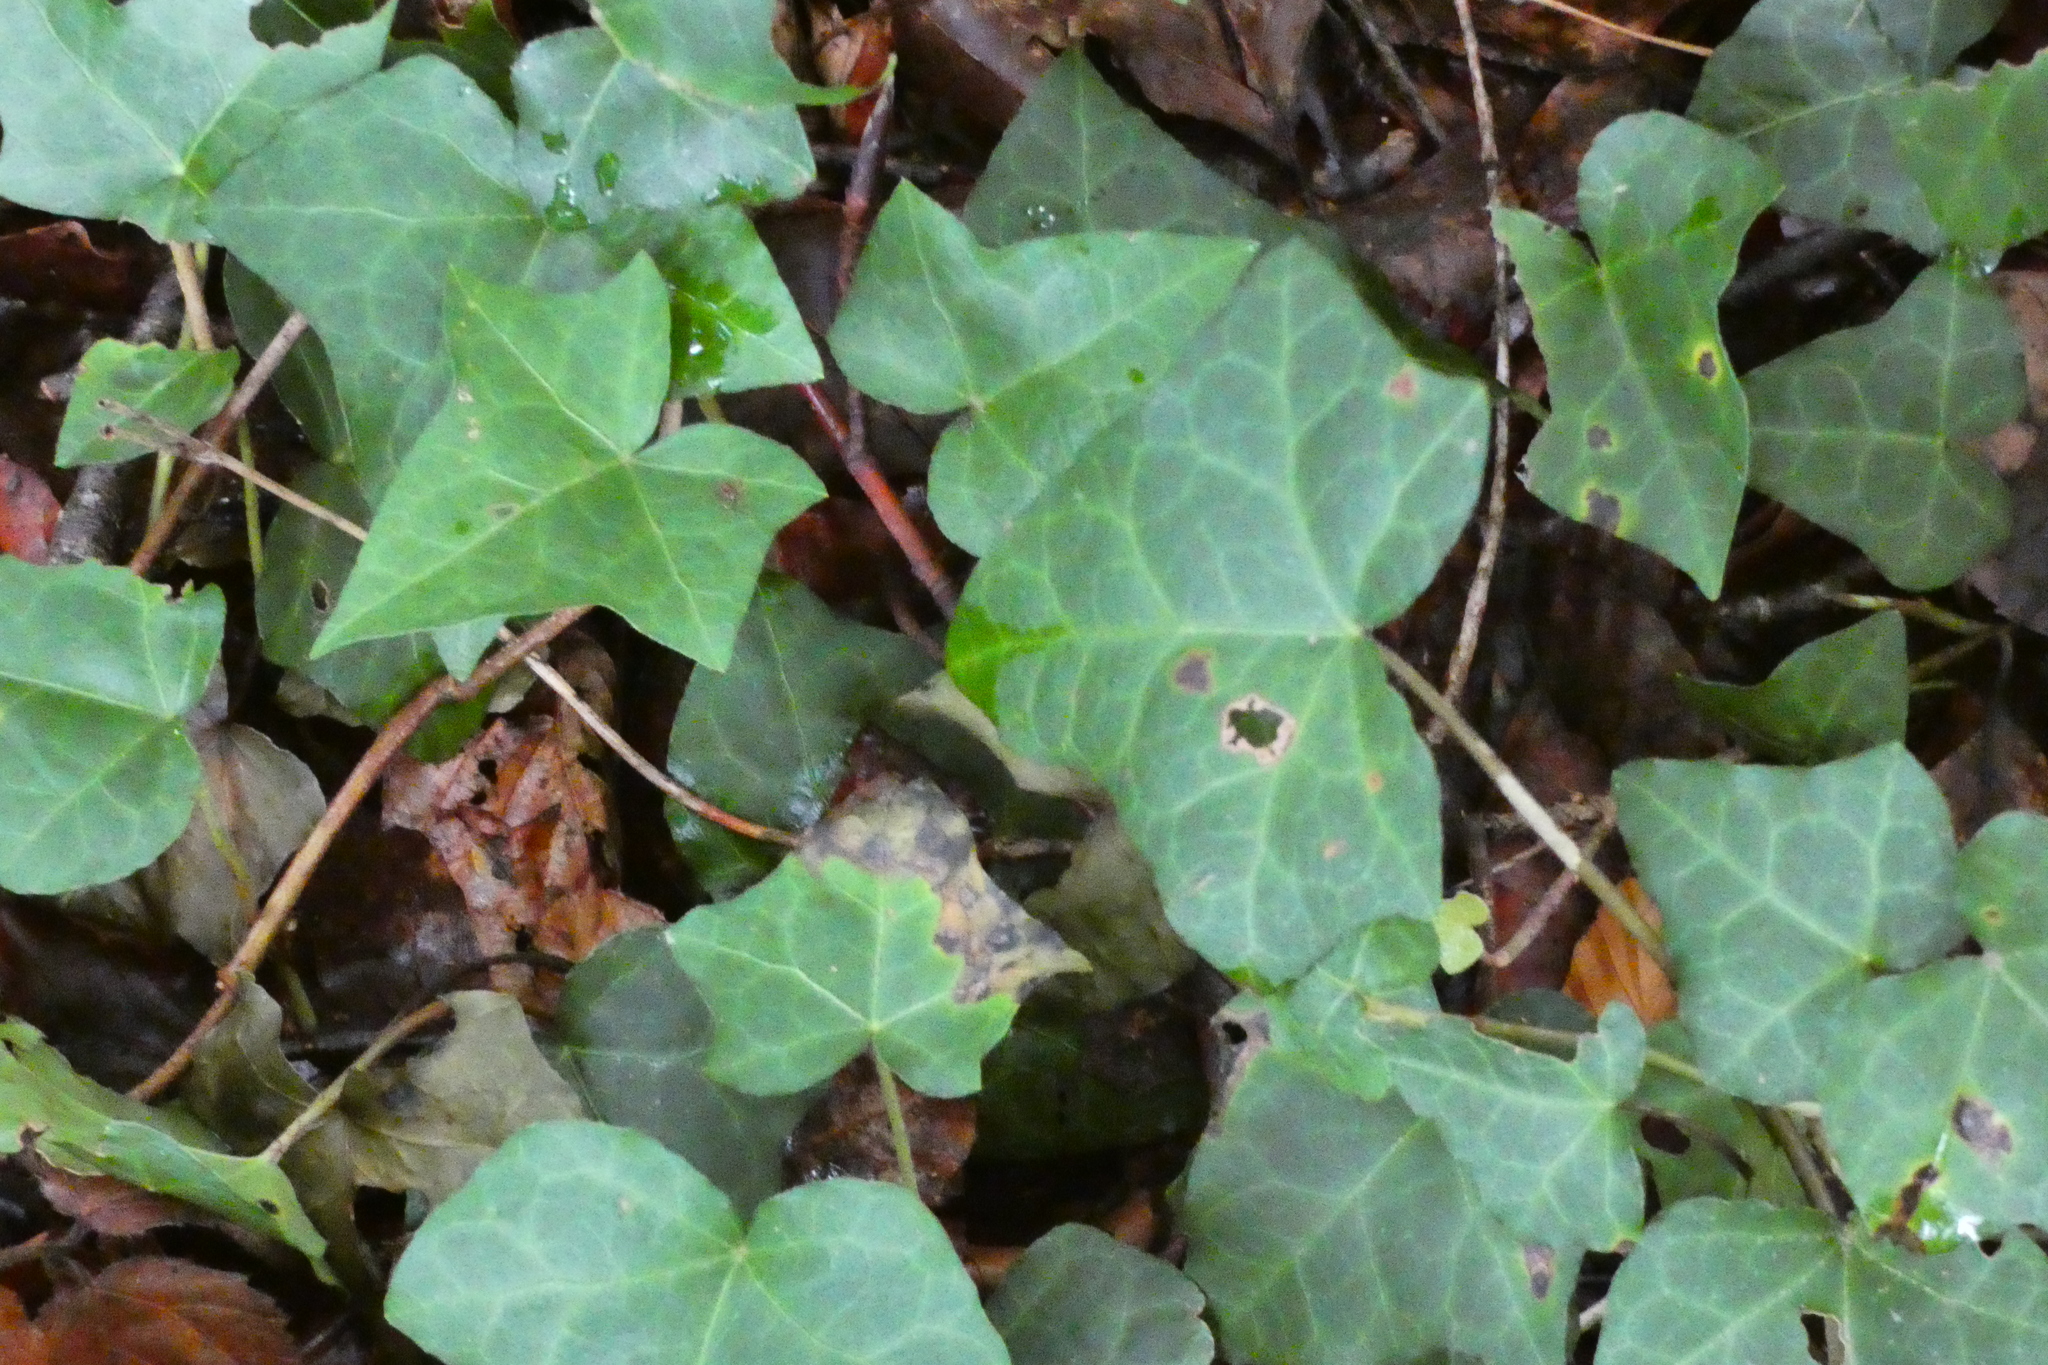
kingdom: Plantae
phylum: Tracheophyta
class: Magnoliopsida
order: Apiales
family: Araliaceae
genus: Hedera
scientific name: Hedera helix
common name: Ivy
